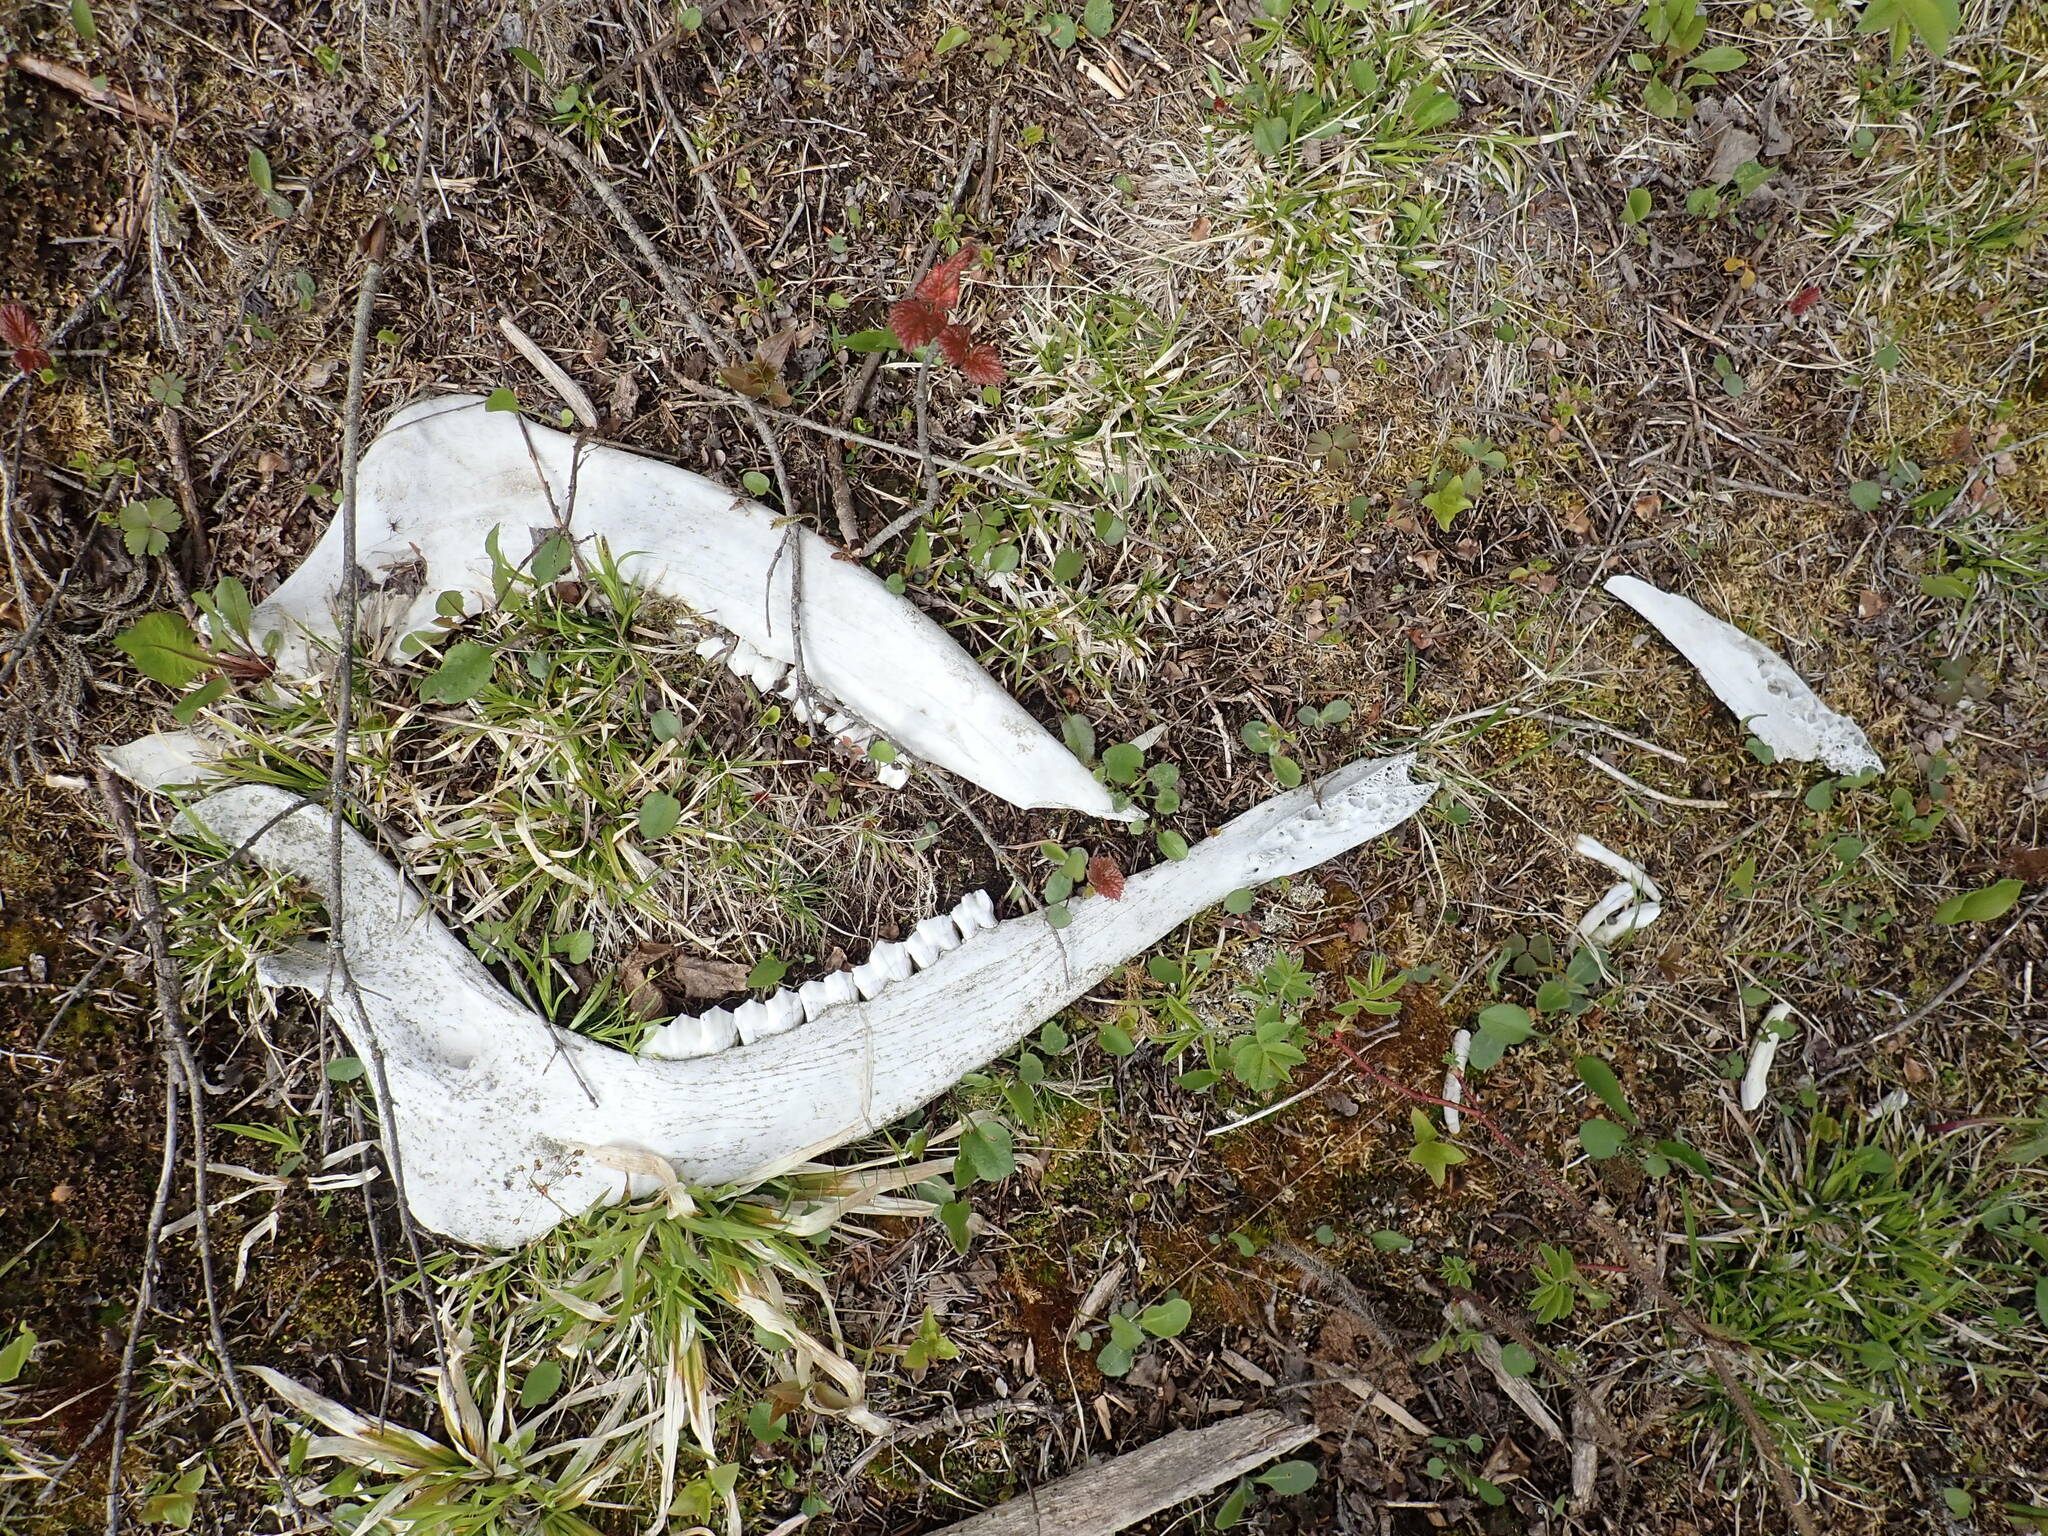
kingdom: Animalia
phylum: Chordata
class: Mammalia
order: Artiodactyla
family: Cervidae
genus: Alces
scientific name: Alces alces
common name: Moose
